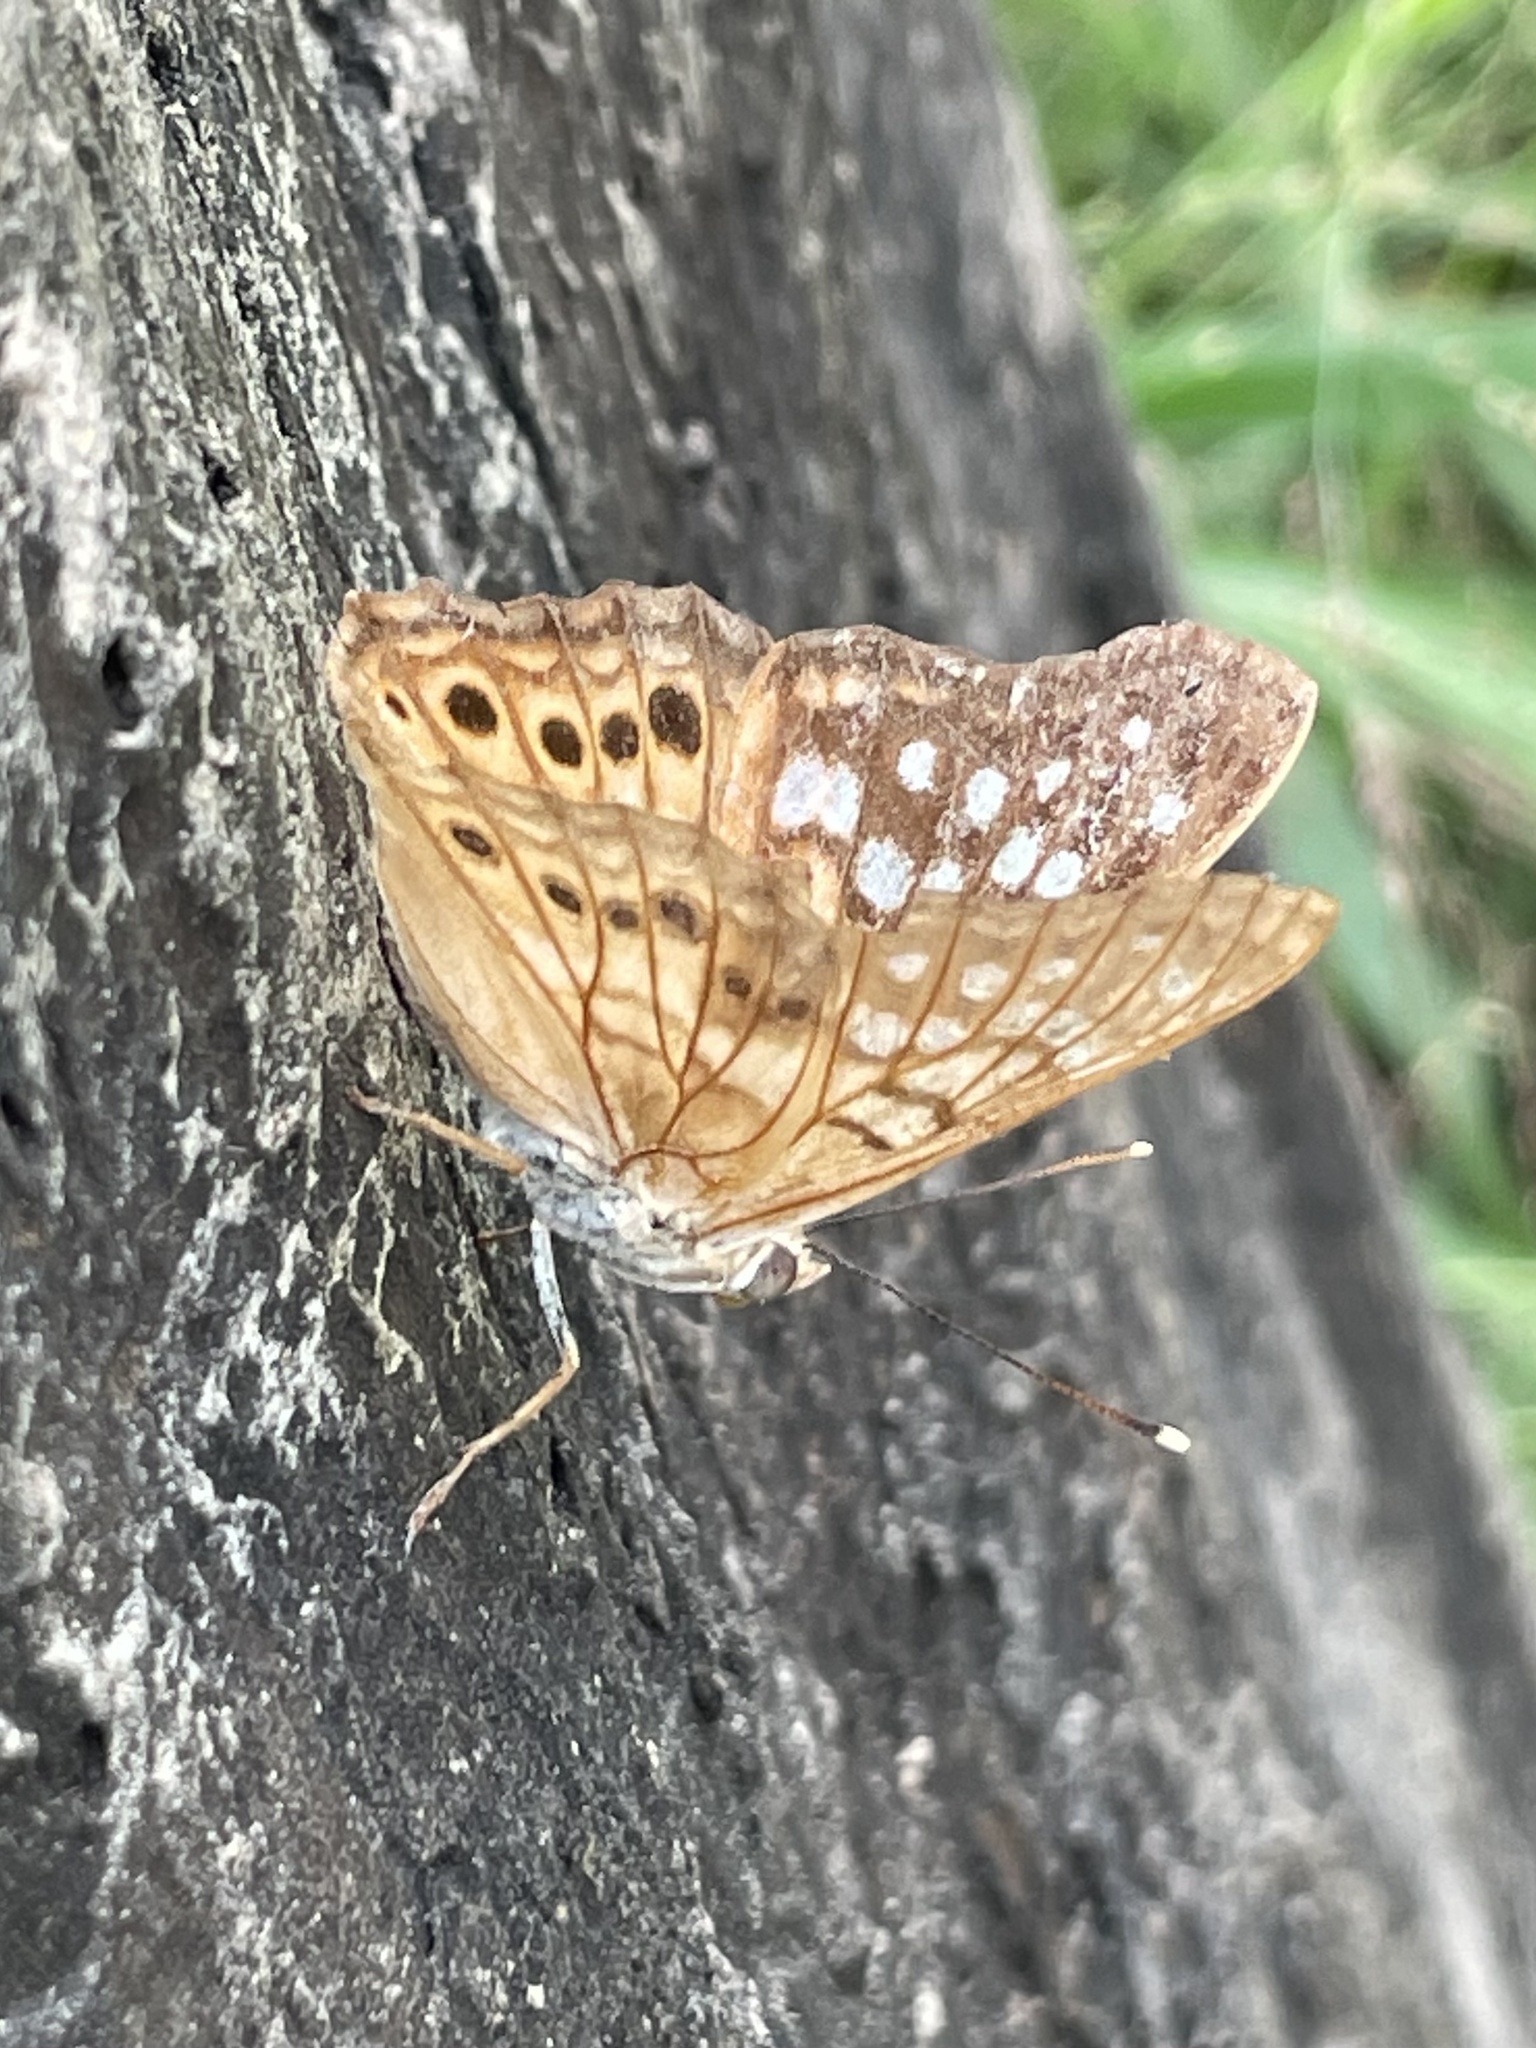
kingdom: Animalia
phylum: Arthropoda
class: Insecta
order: Lepidoptera
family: Nymphalidae
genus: Asterocampa
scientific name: Asterocampa clyton
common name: Tawny emperor
